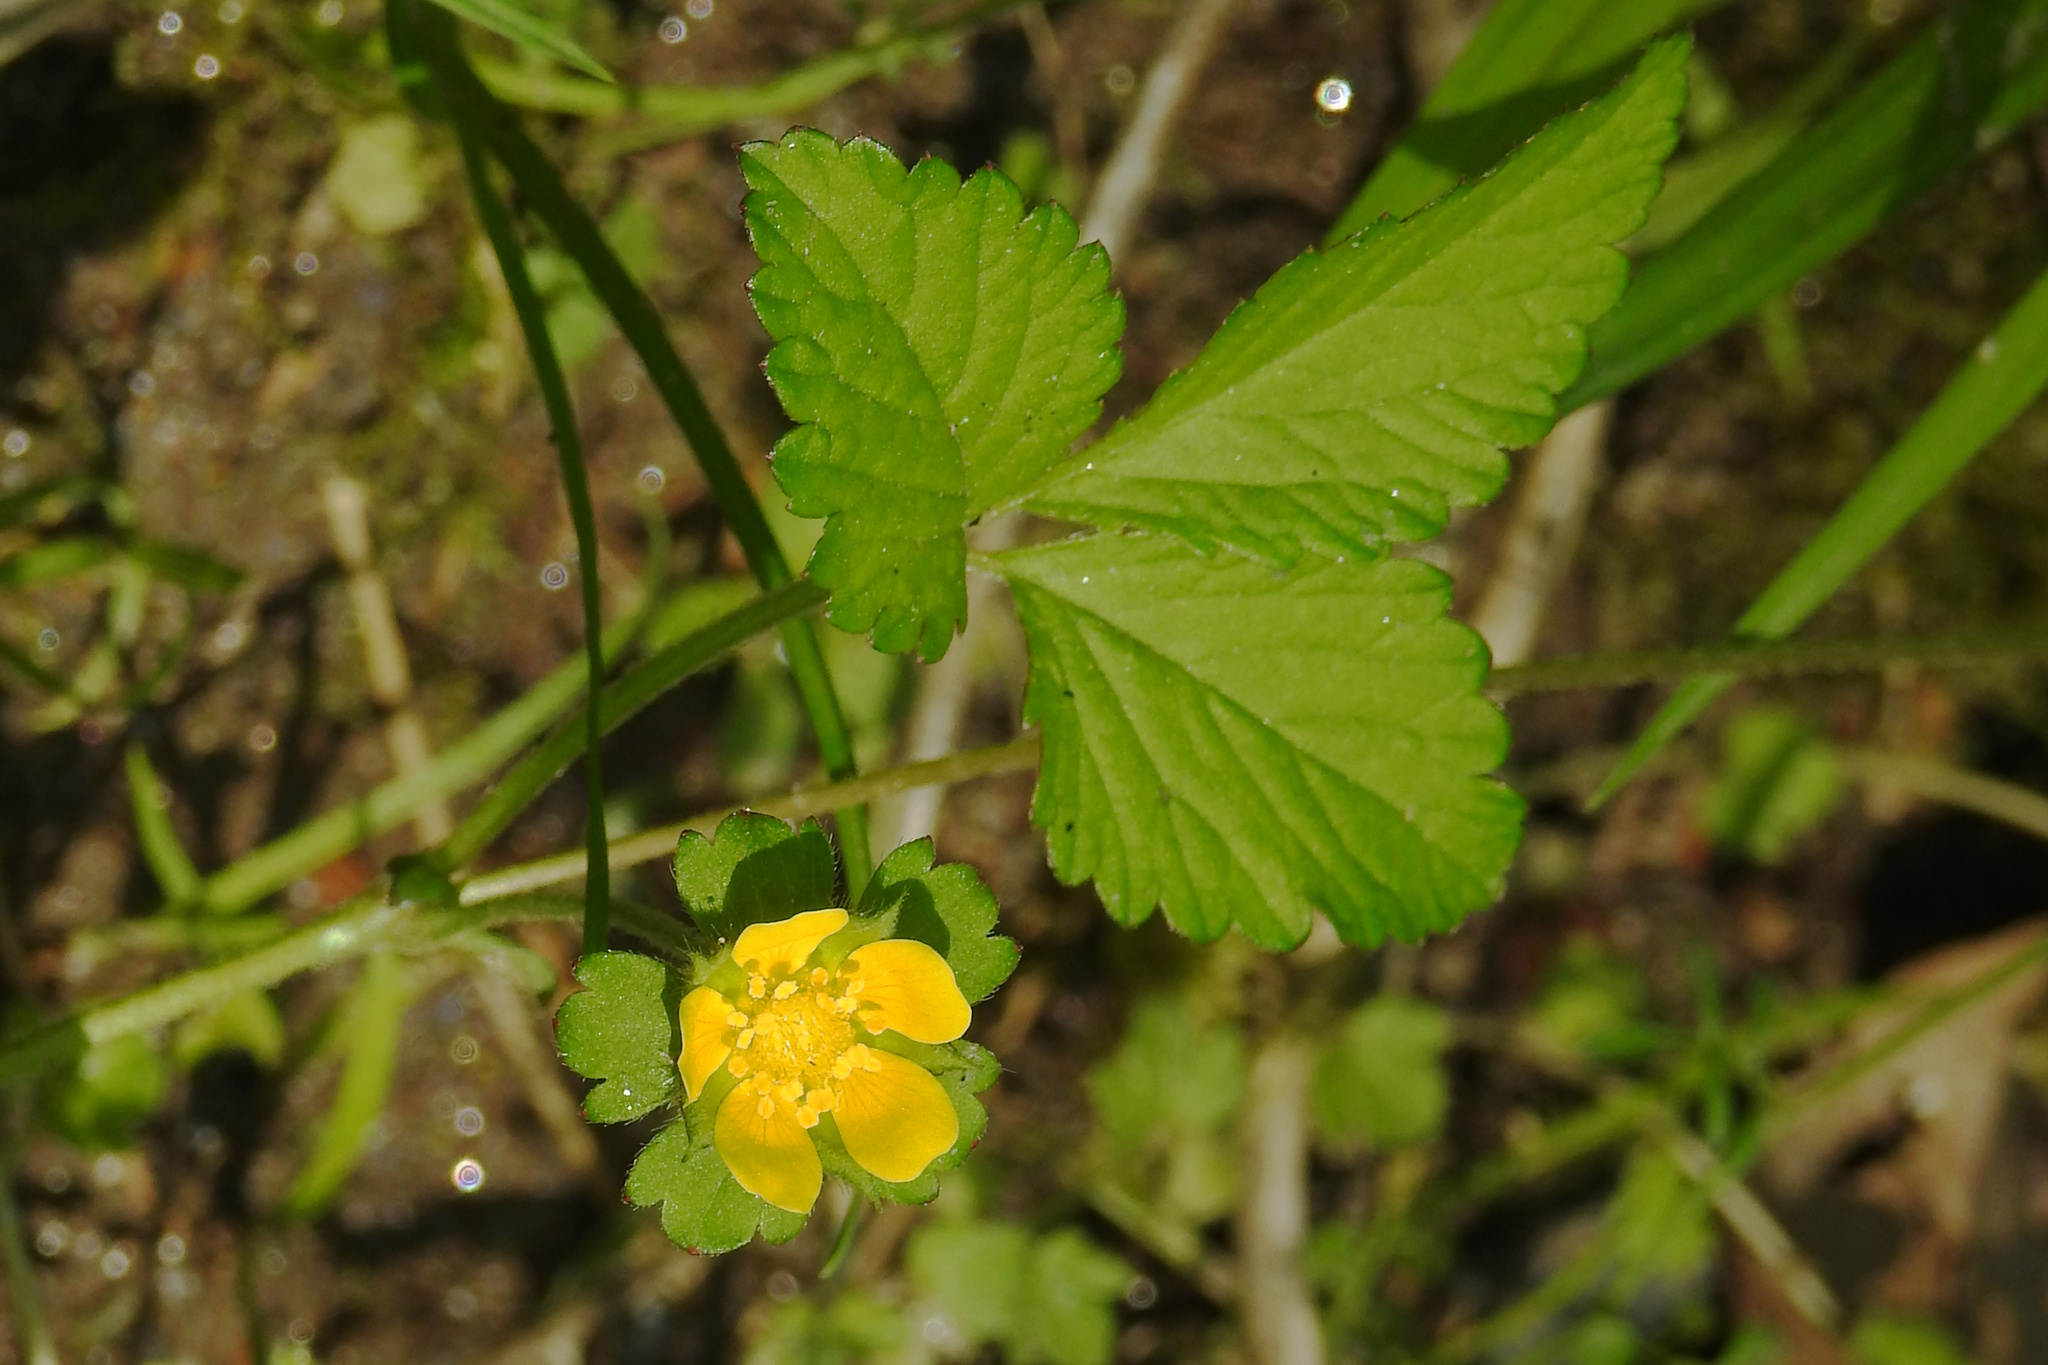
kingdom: Plantae
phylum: Tracheophyta
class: Magnoliopsida
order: Rosales
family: Rosaceae
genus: Potentilla
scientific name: Potentilla indica
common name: Yellow-flowered strawberry
